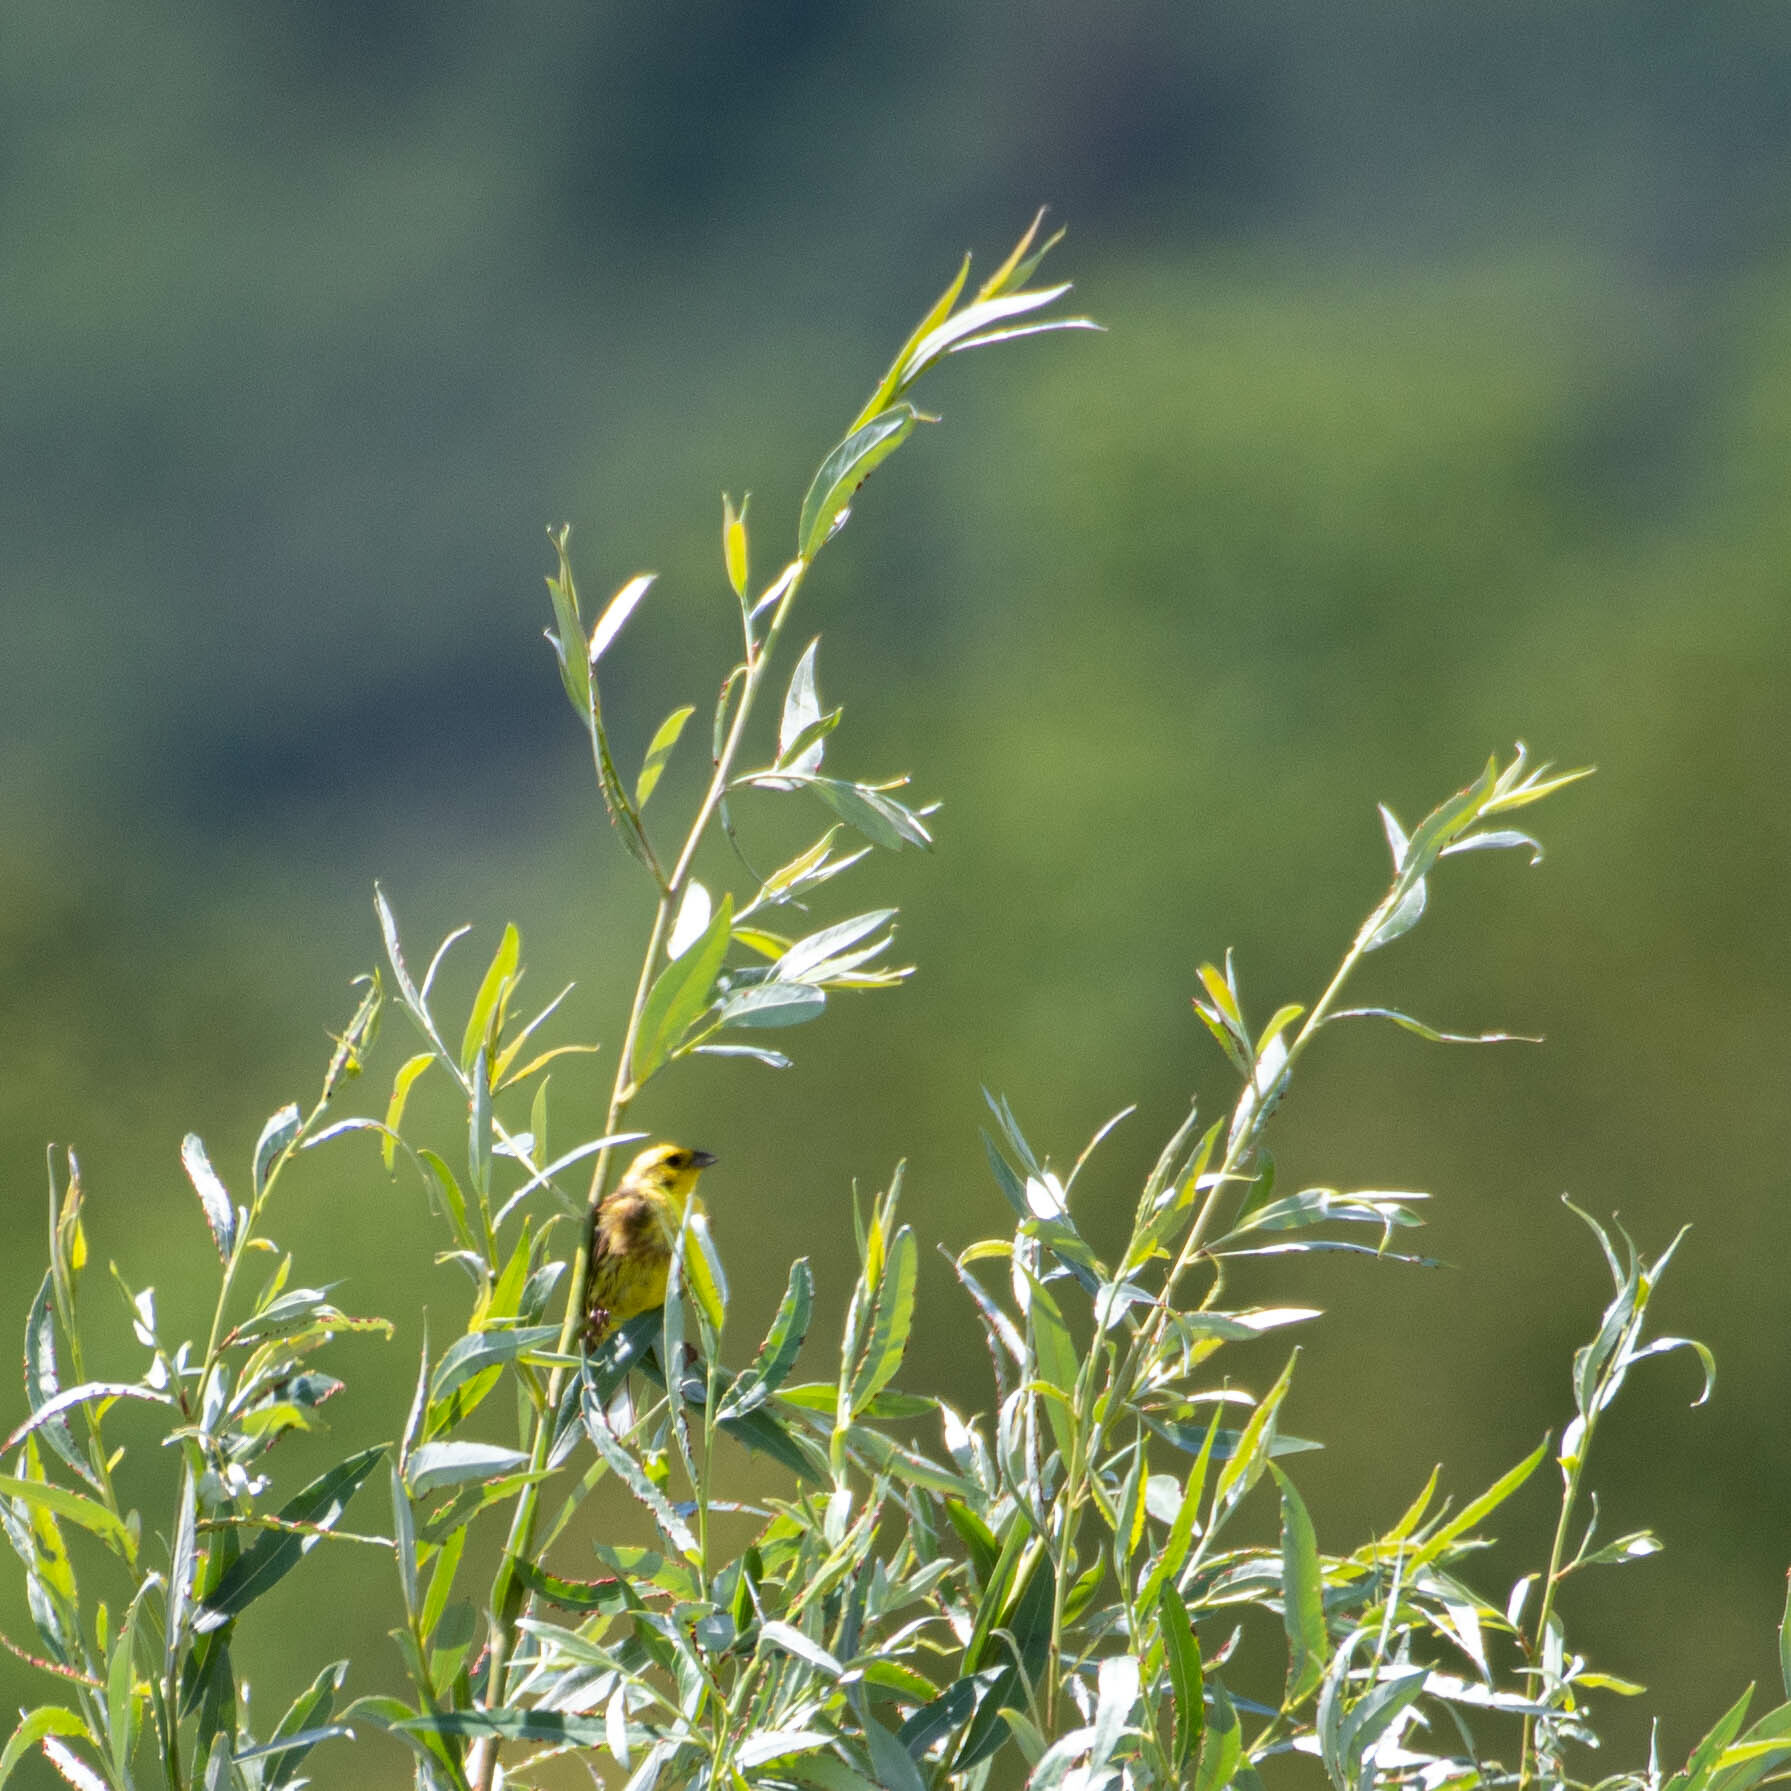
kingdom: Animalia
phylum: Chordata
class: Aves
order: Passeriformes
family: Emberizidae
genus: Emberiza
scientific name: Emberiza citrinella
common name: Yellowhammer
